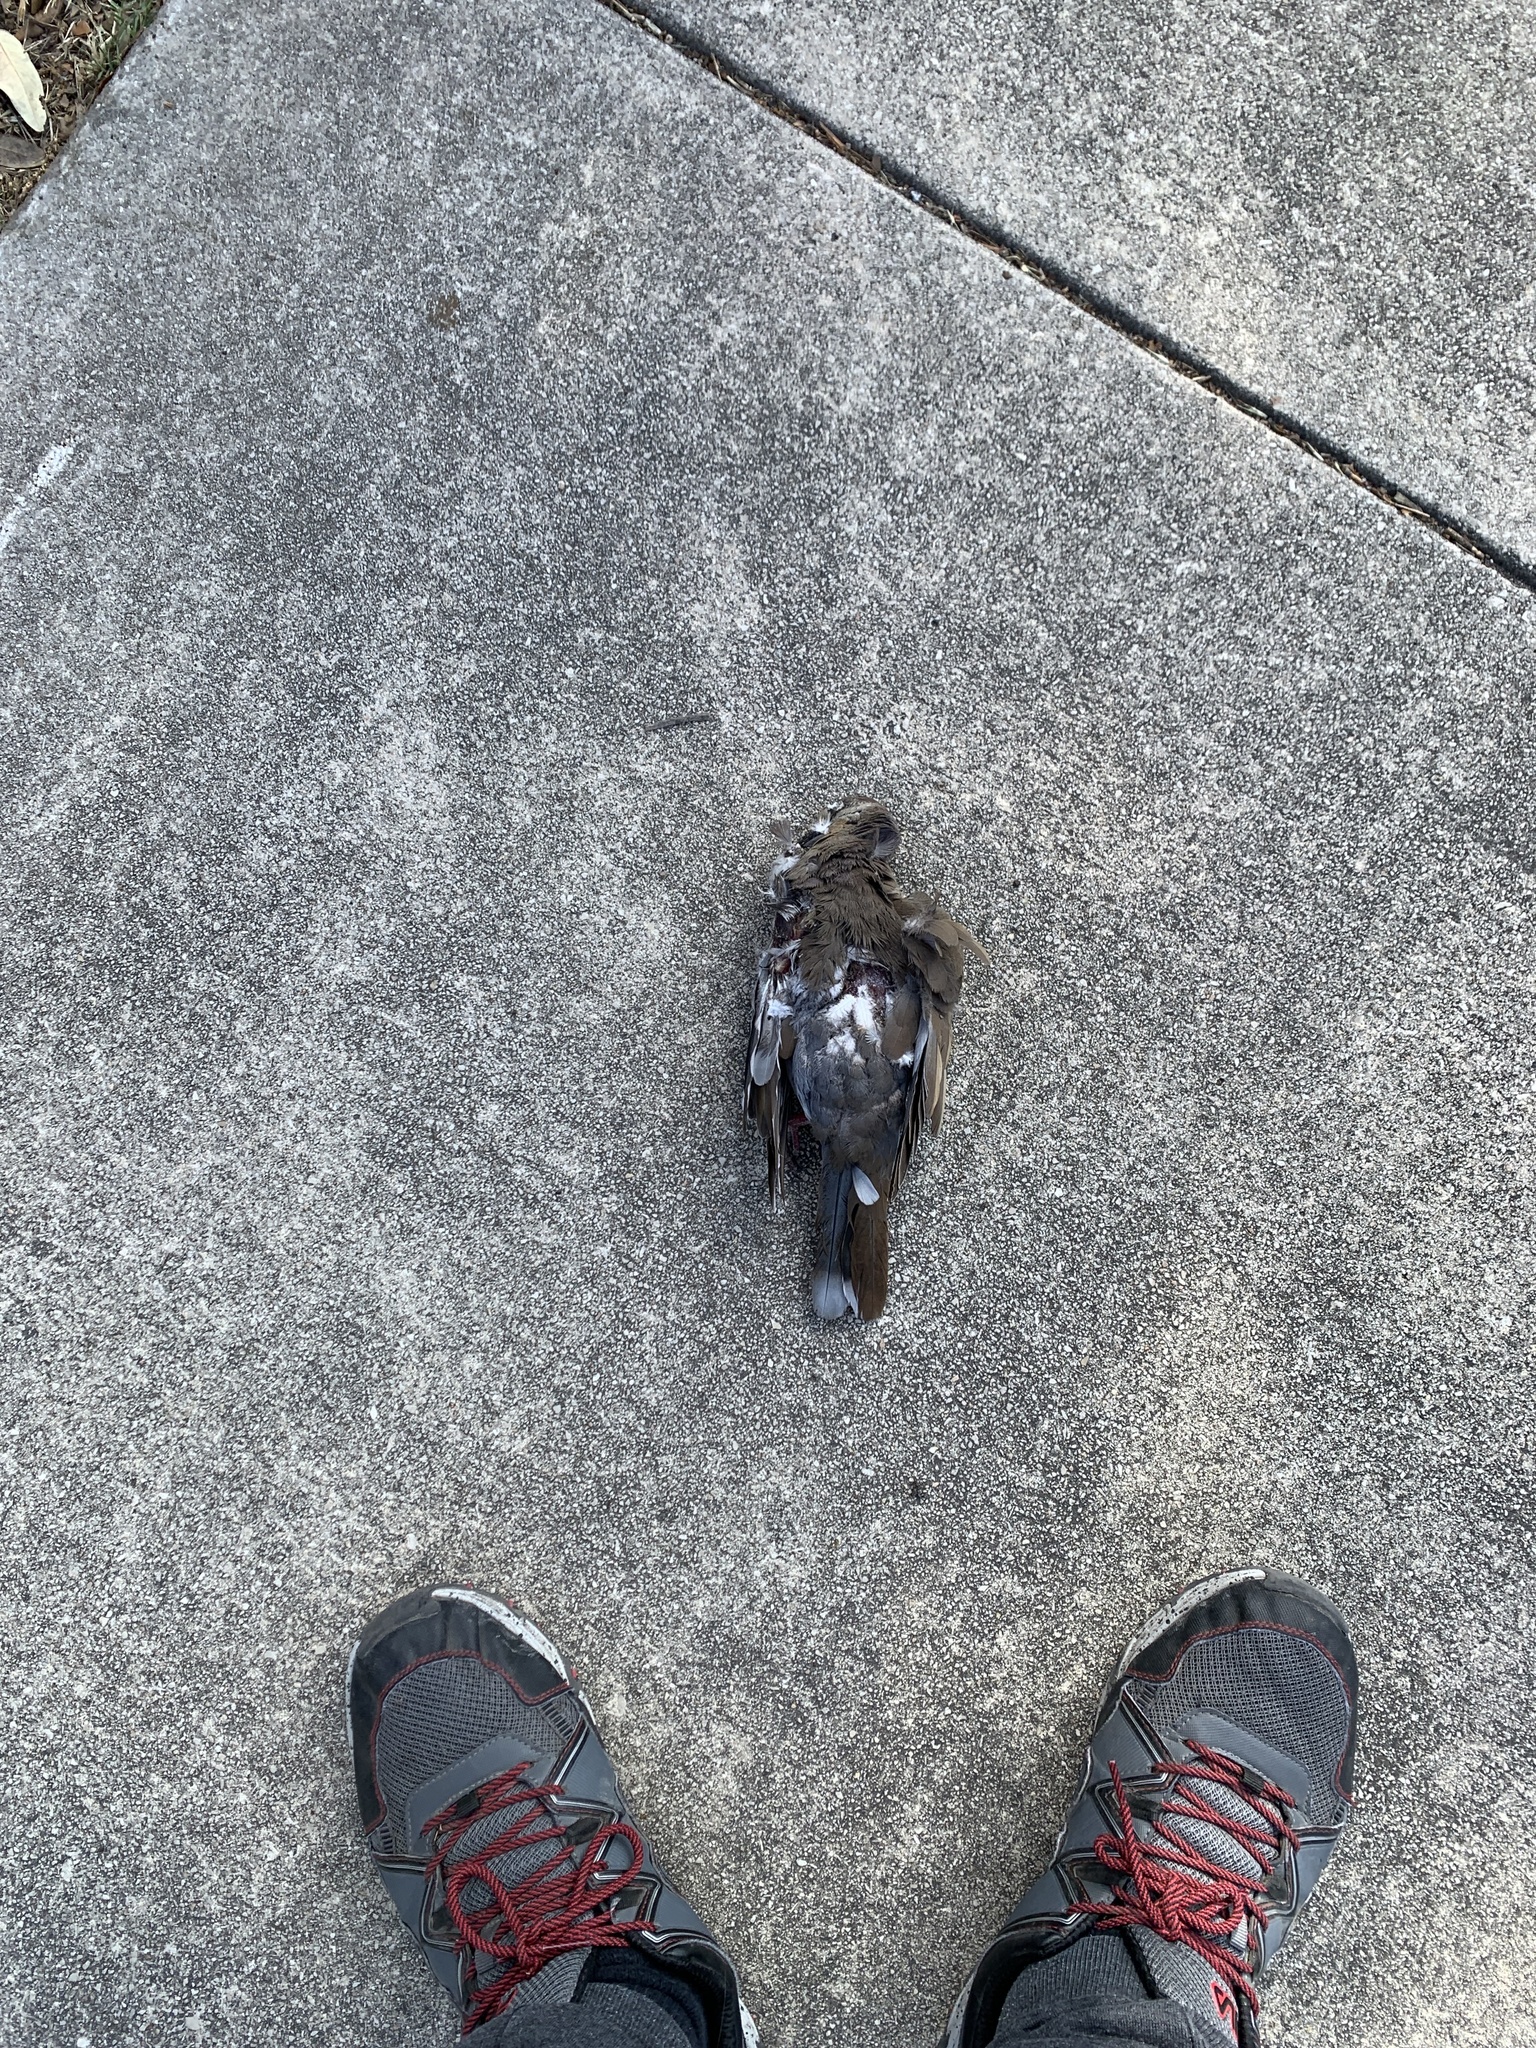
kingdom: Animalia
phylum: Chordata
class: Aves
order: Columbiformes
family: Columbidae
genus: Zenaida
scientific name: Zenaida asiatica
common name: White-winged dove
